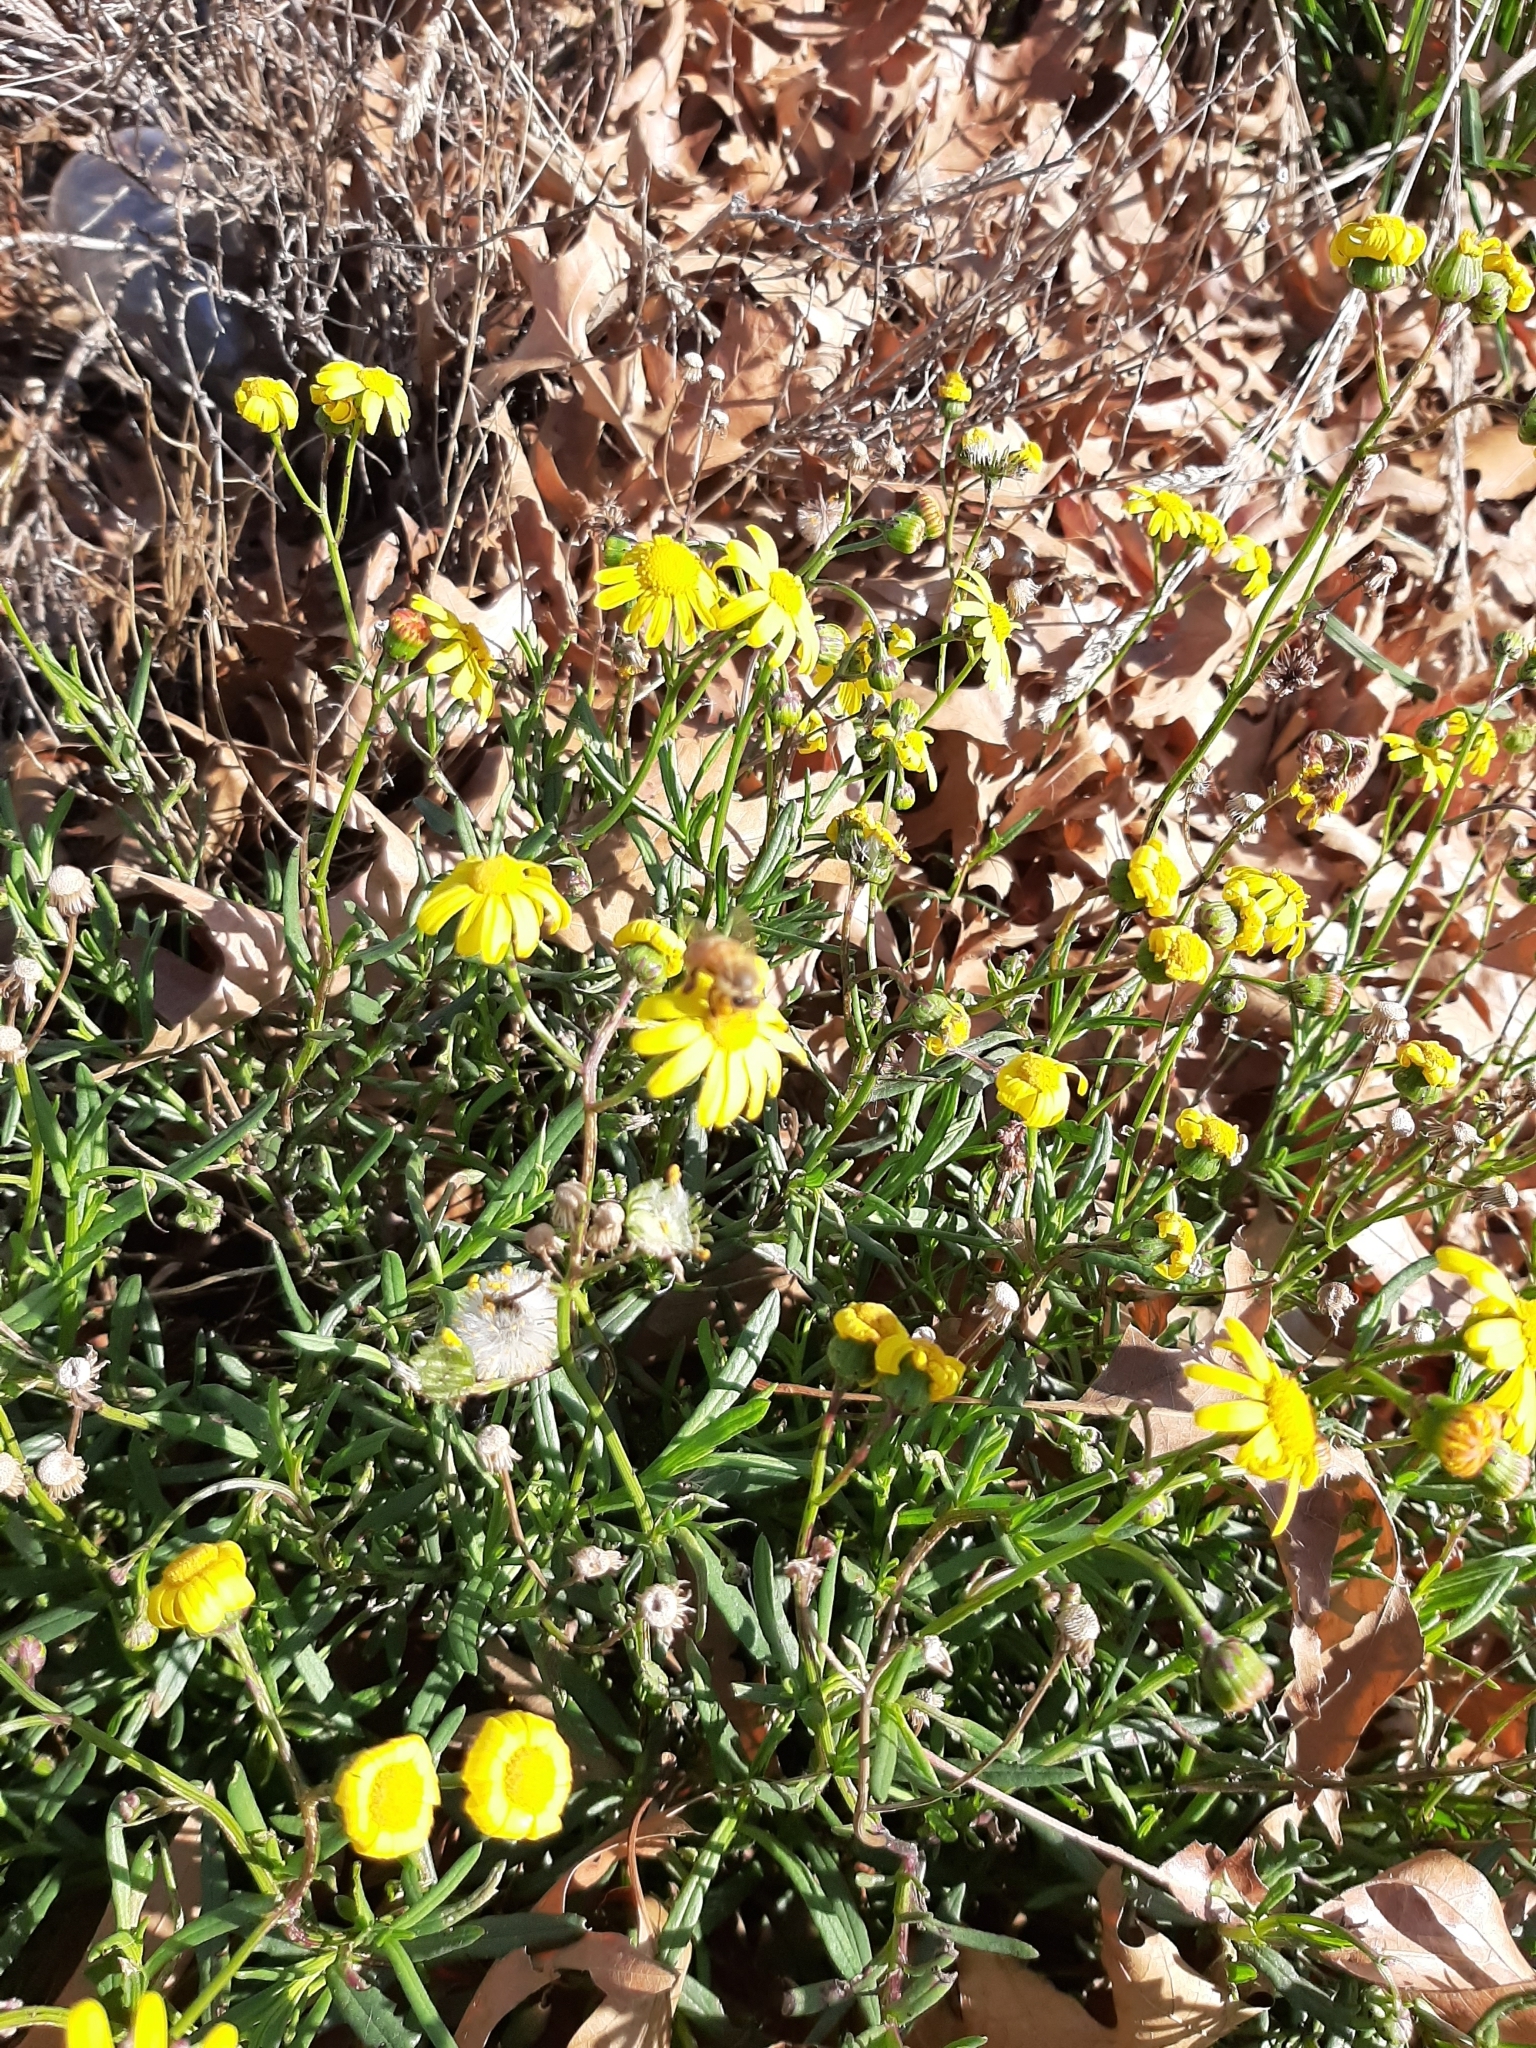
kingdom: Animalia
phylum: Arthropoda
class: Insecta
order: Hymenoptera
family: Apidae
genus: Apis
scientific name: Apis mellifera
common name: Honey bee
